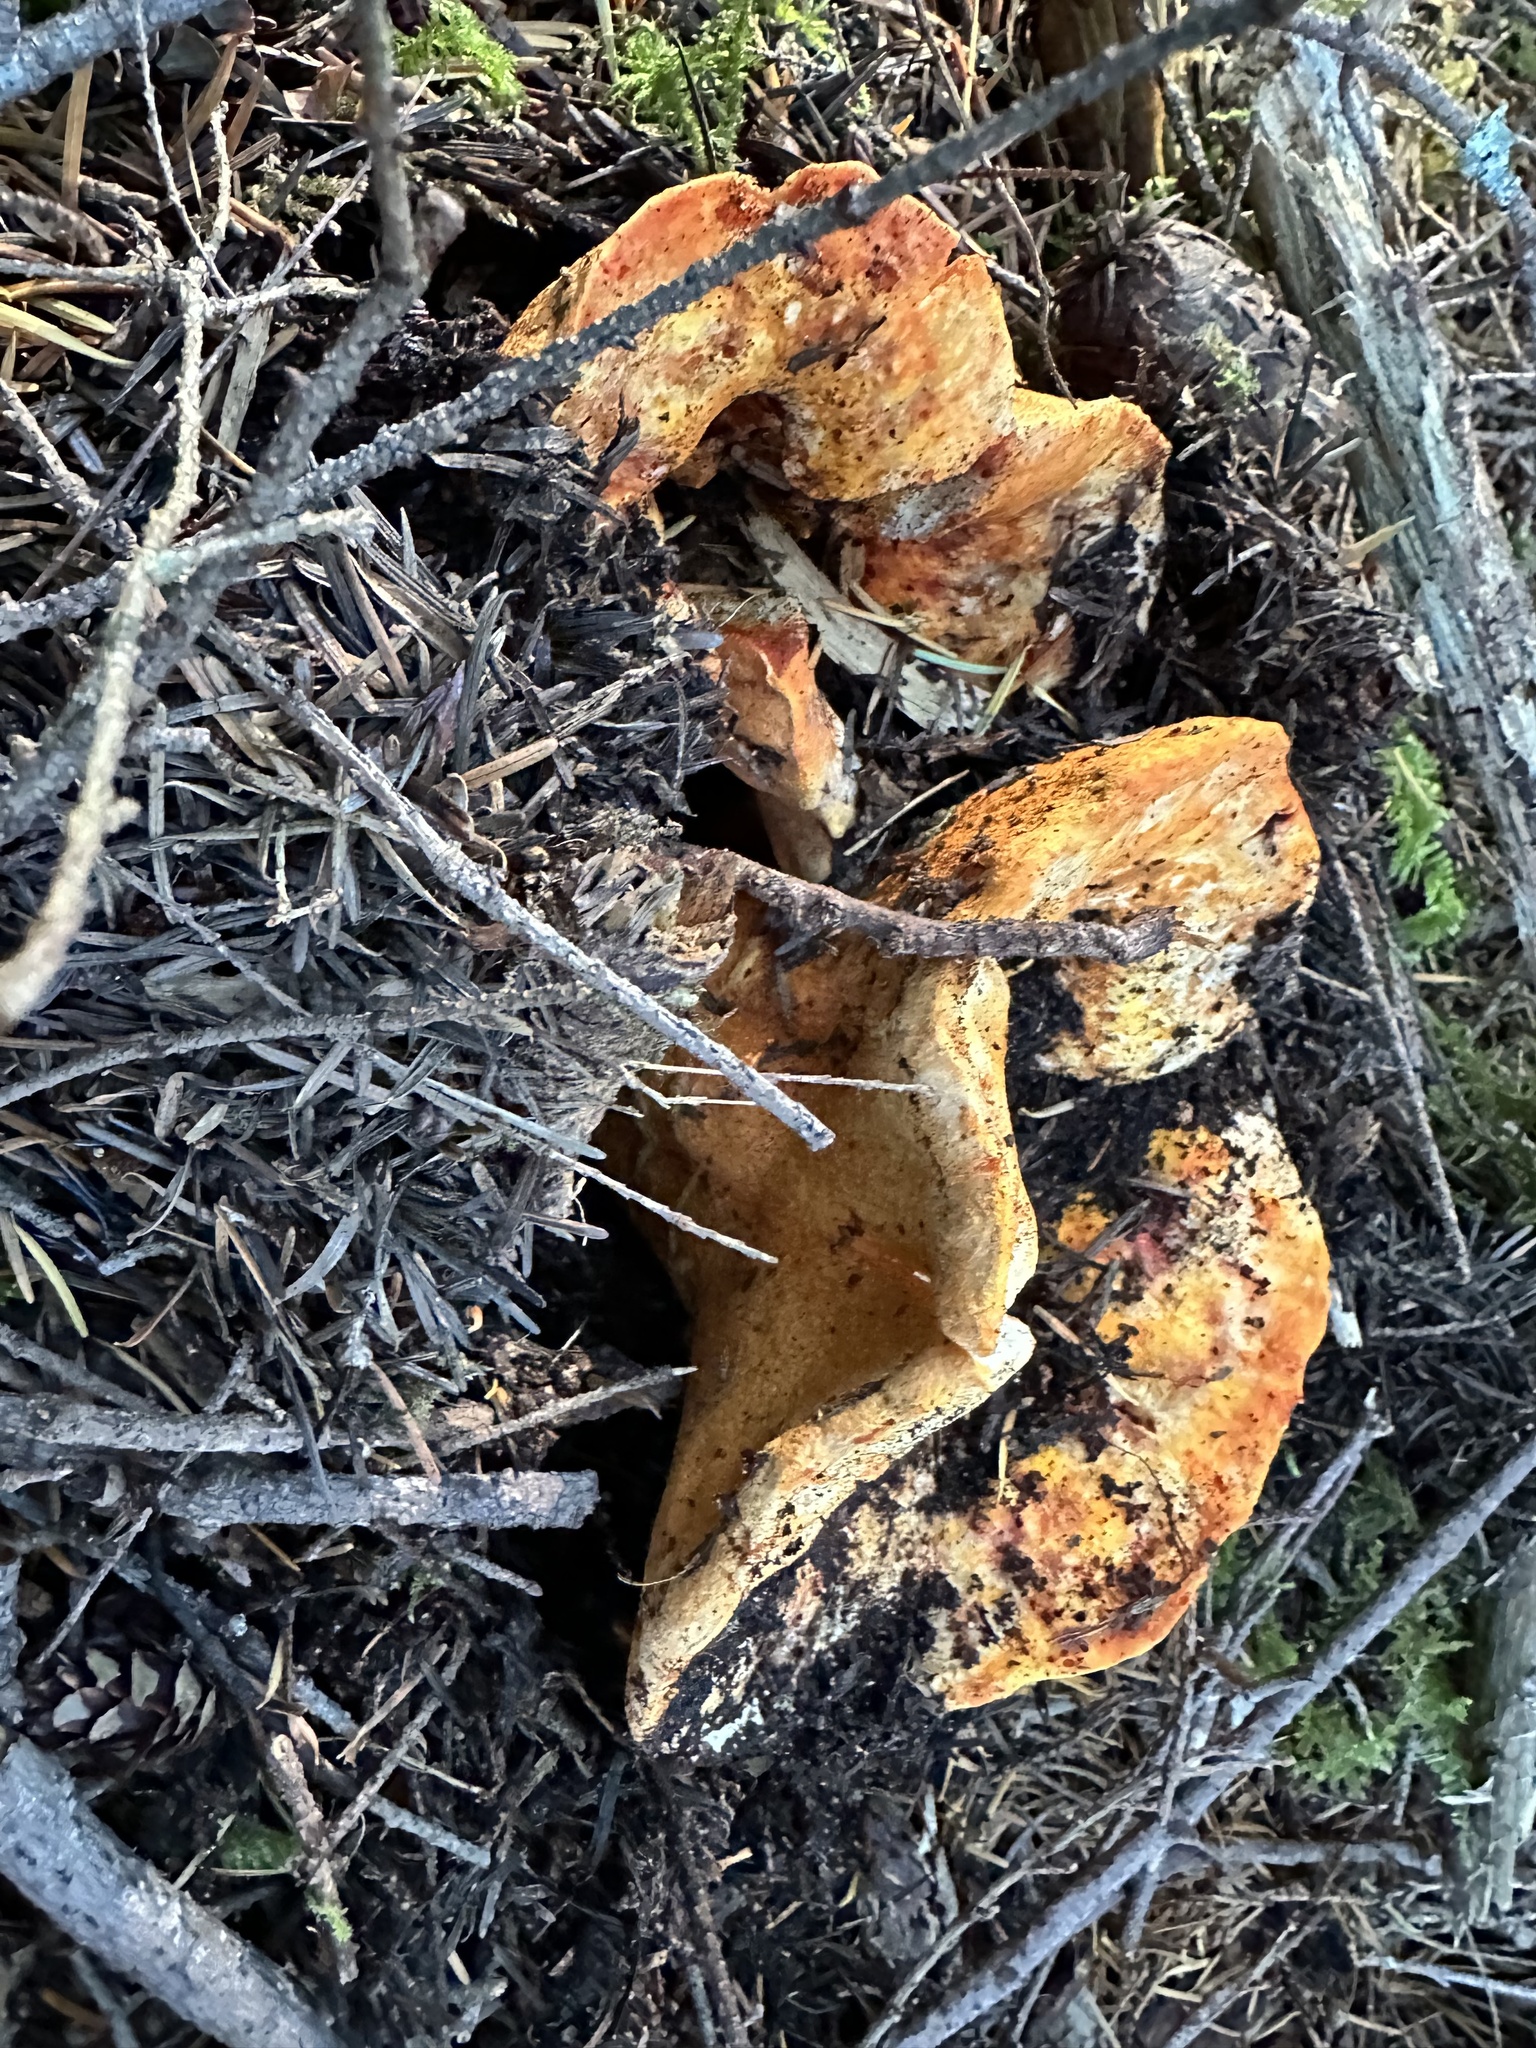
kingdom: Fungi
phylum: Ascomycota
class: Sordariomycetes
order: Hypocreales
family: Hypocreaceae
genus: Hypomyces
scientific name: Hypomyces lactifluorum
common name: Lobster mushroom
